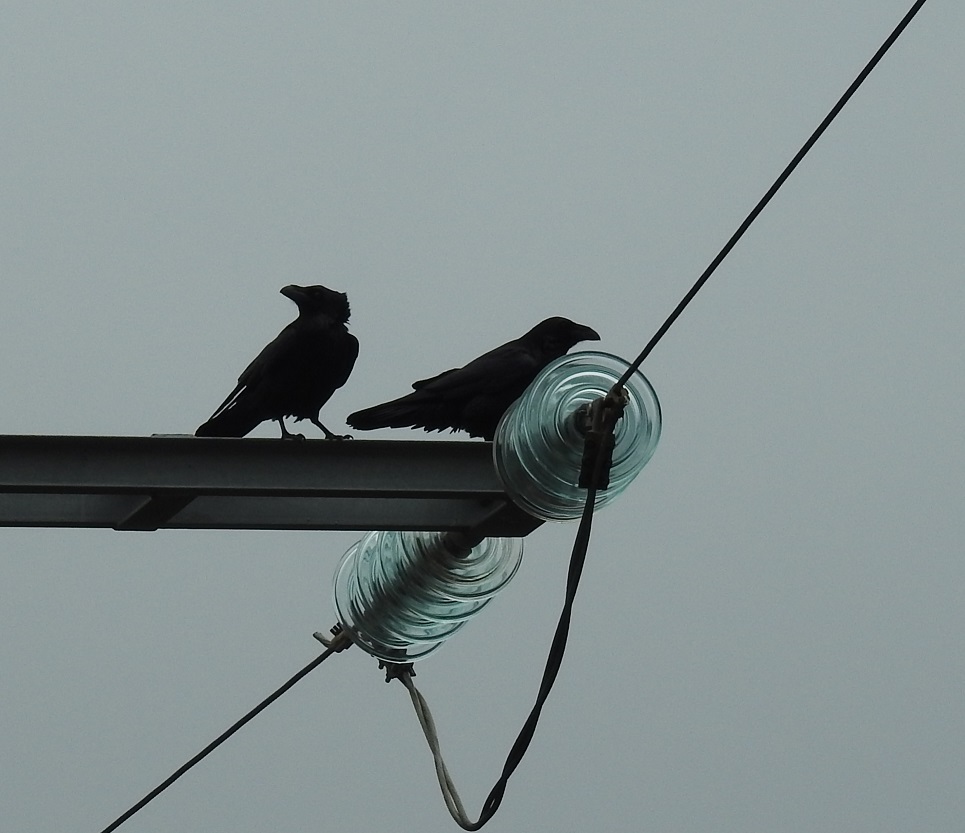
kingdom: Animalia
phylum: Chordata
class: Aves
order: Passeriformes
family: Corvidae
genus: Corvus
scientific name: Corvus corax
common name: Common raven
